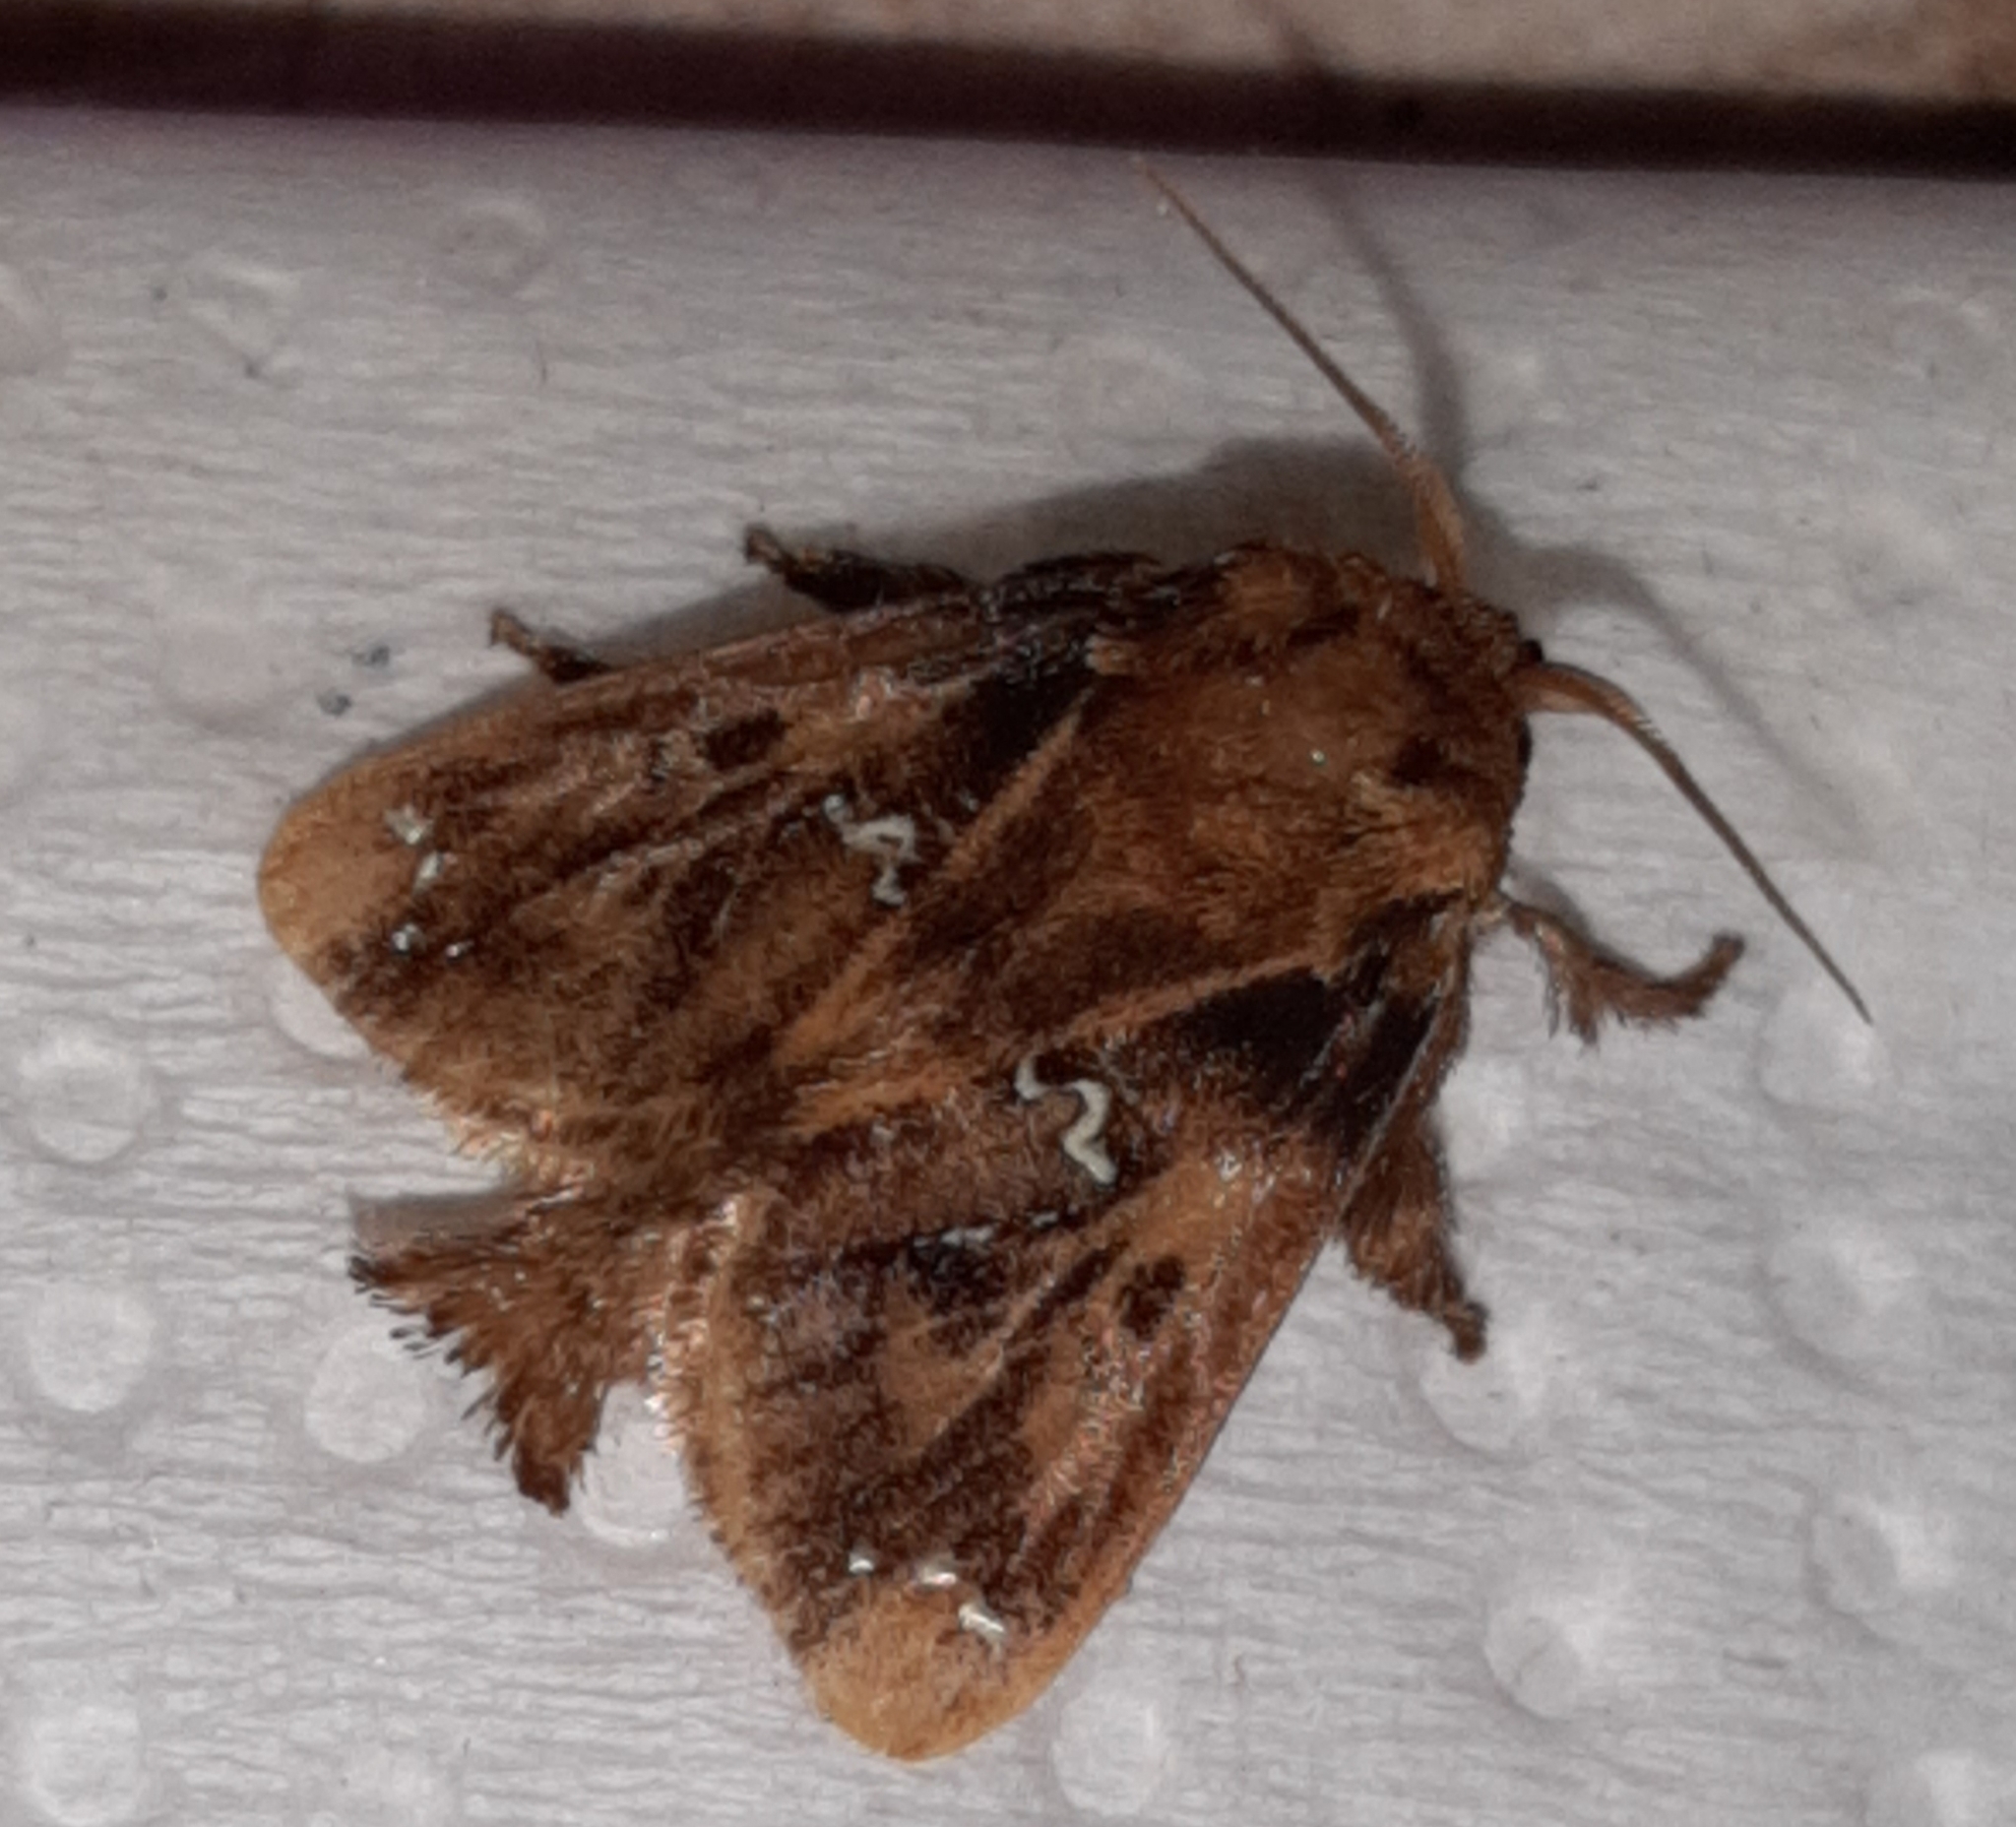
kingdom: Animalia
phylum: Arthropoda
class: Insecta
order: Lepidoptera
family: Limacodidae
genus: Euclea
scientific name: Euclea buscki
